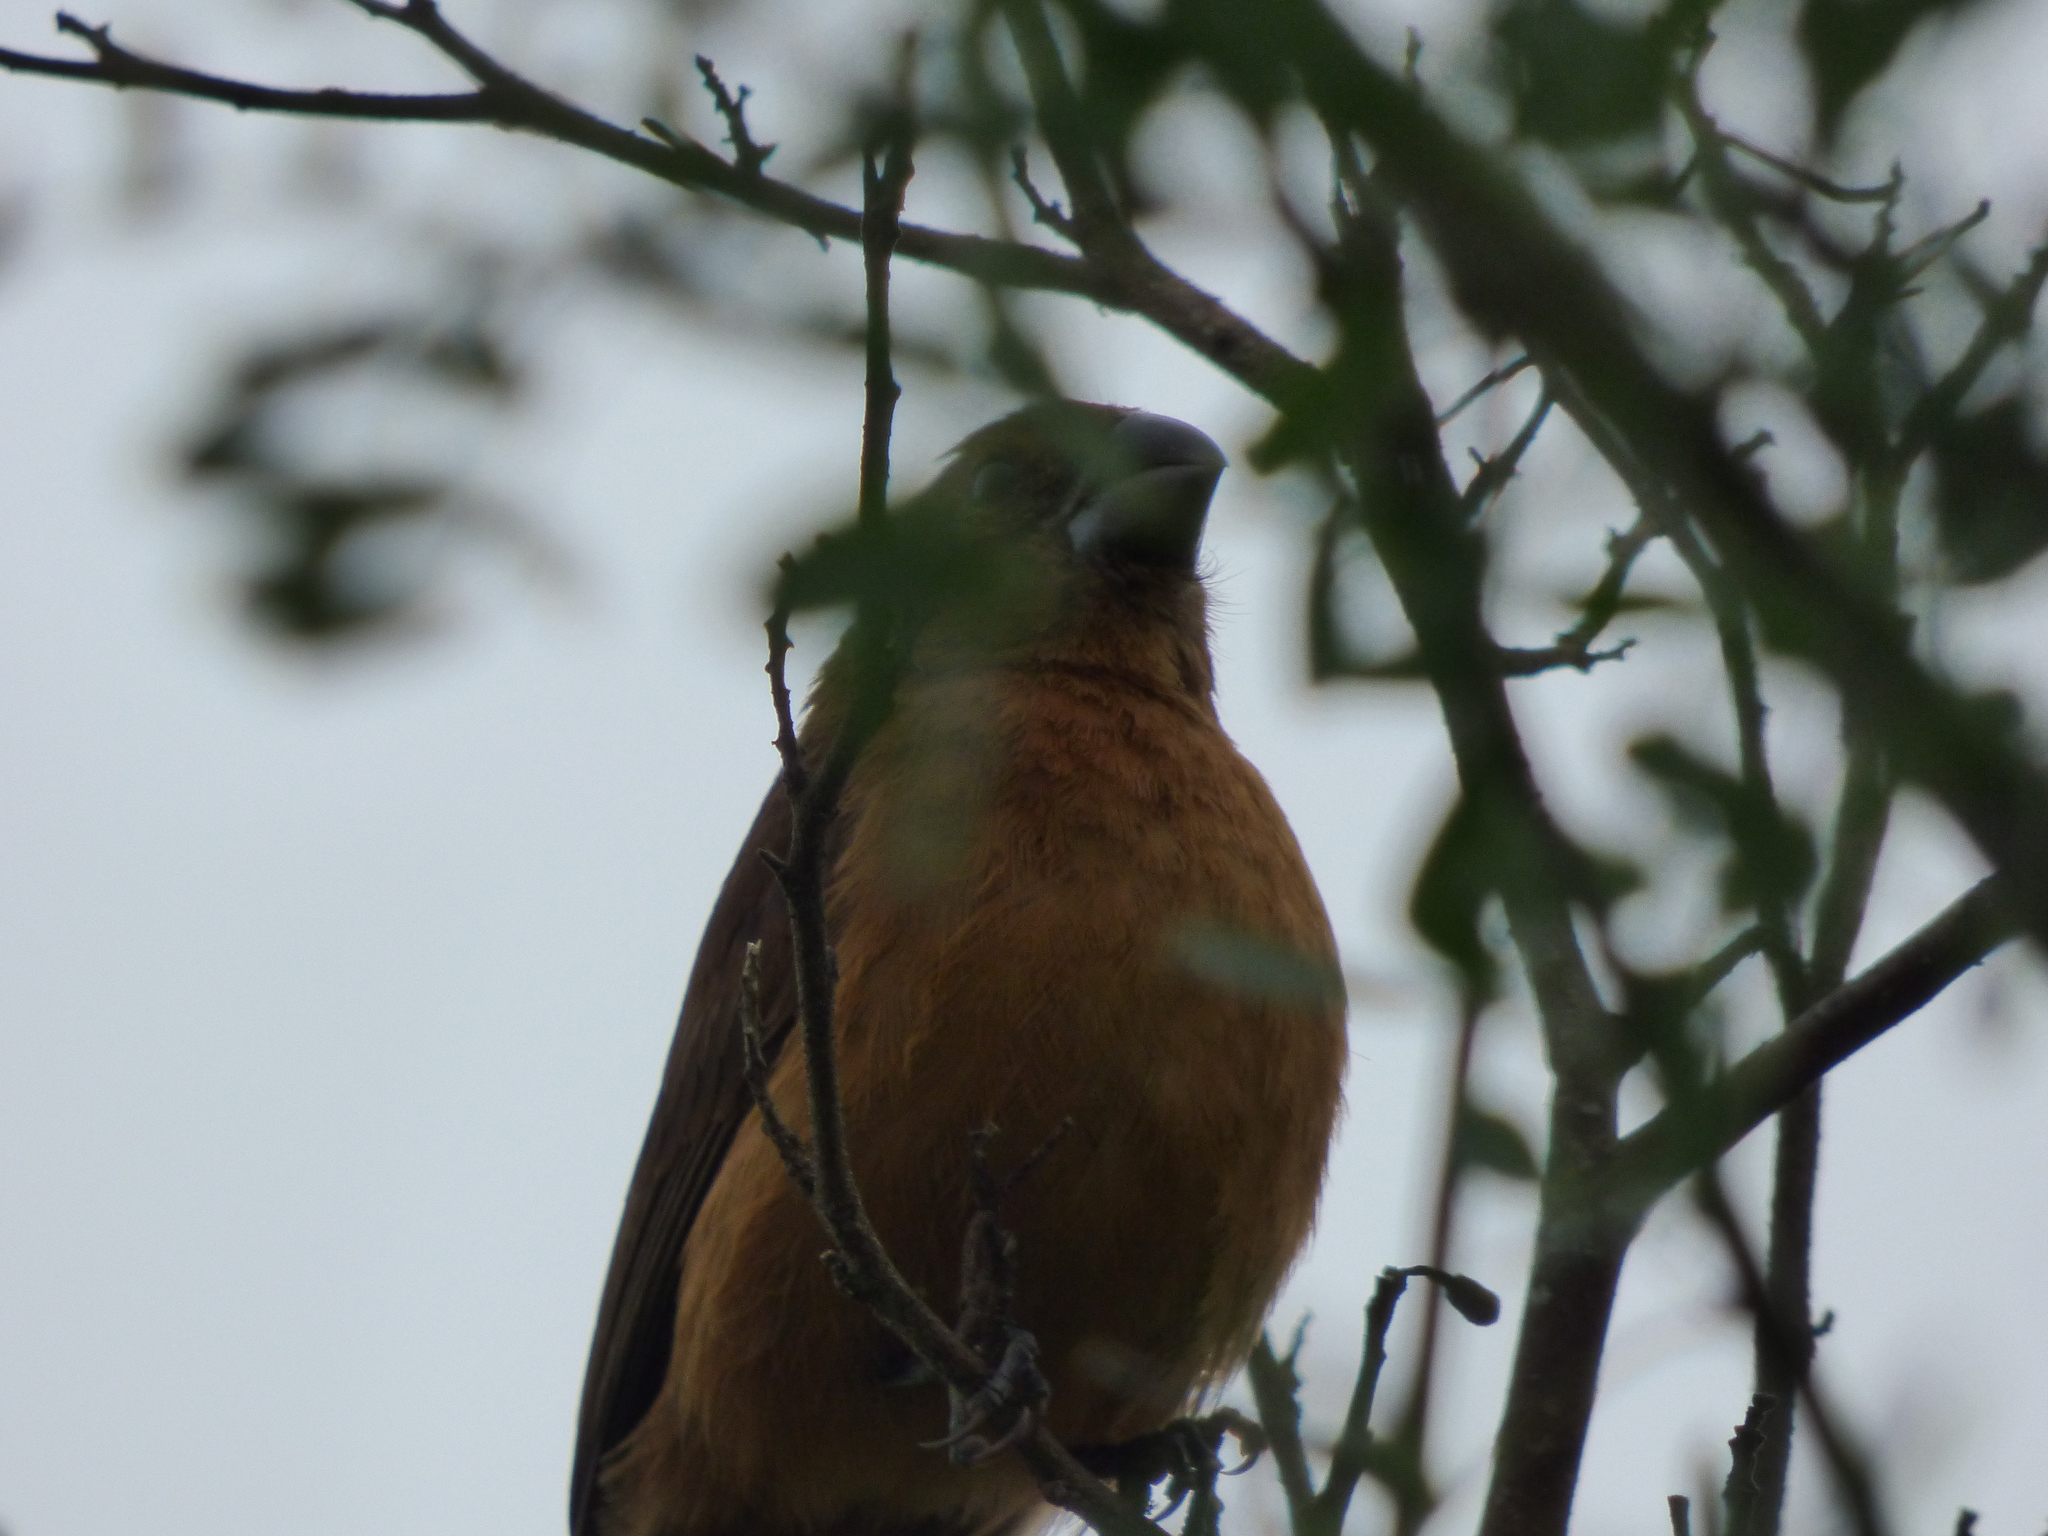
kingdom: Animalia
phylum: Chordata
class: Aves
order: Passeriformes
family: Cardinalidae
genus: Cyanoloxia
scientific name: Cyanoloxia brissonii
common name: Ultramarine grosbeak
